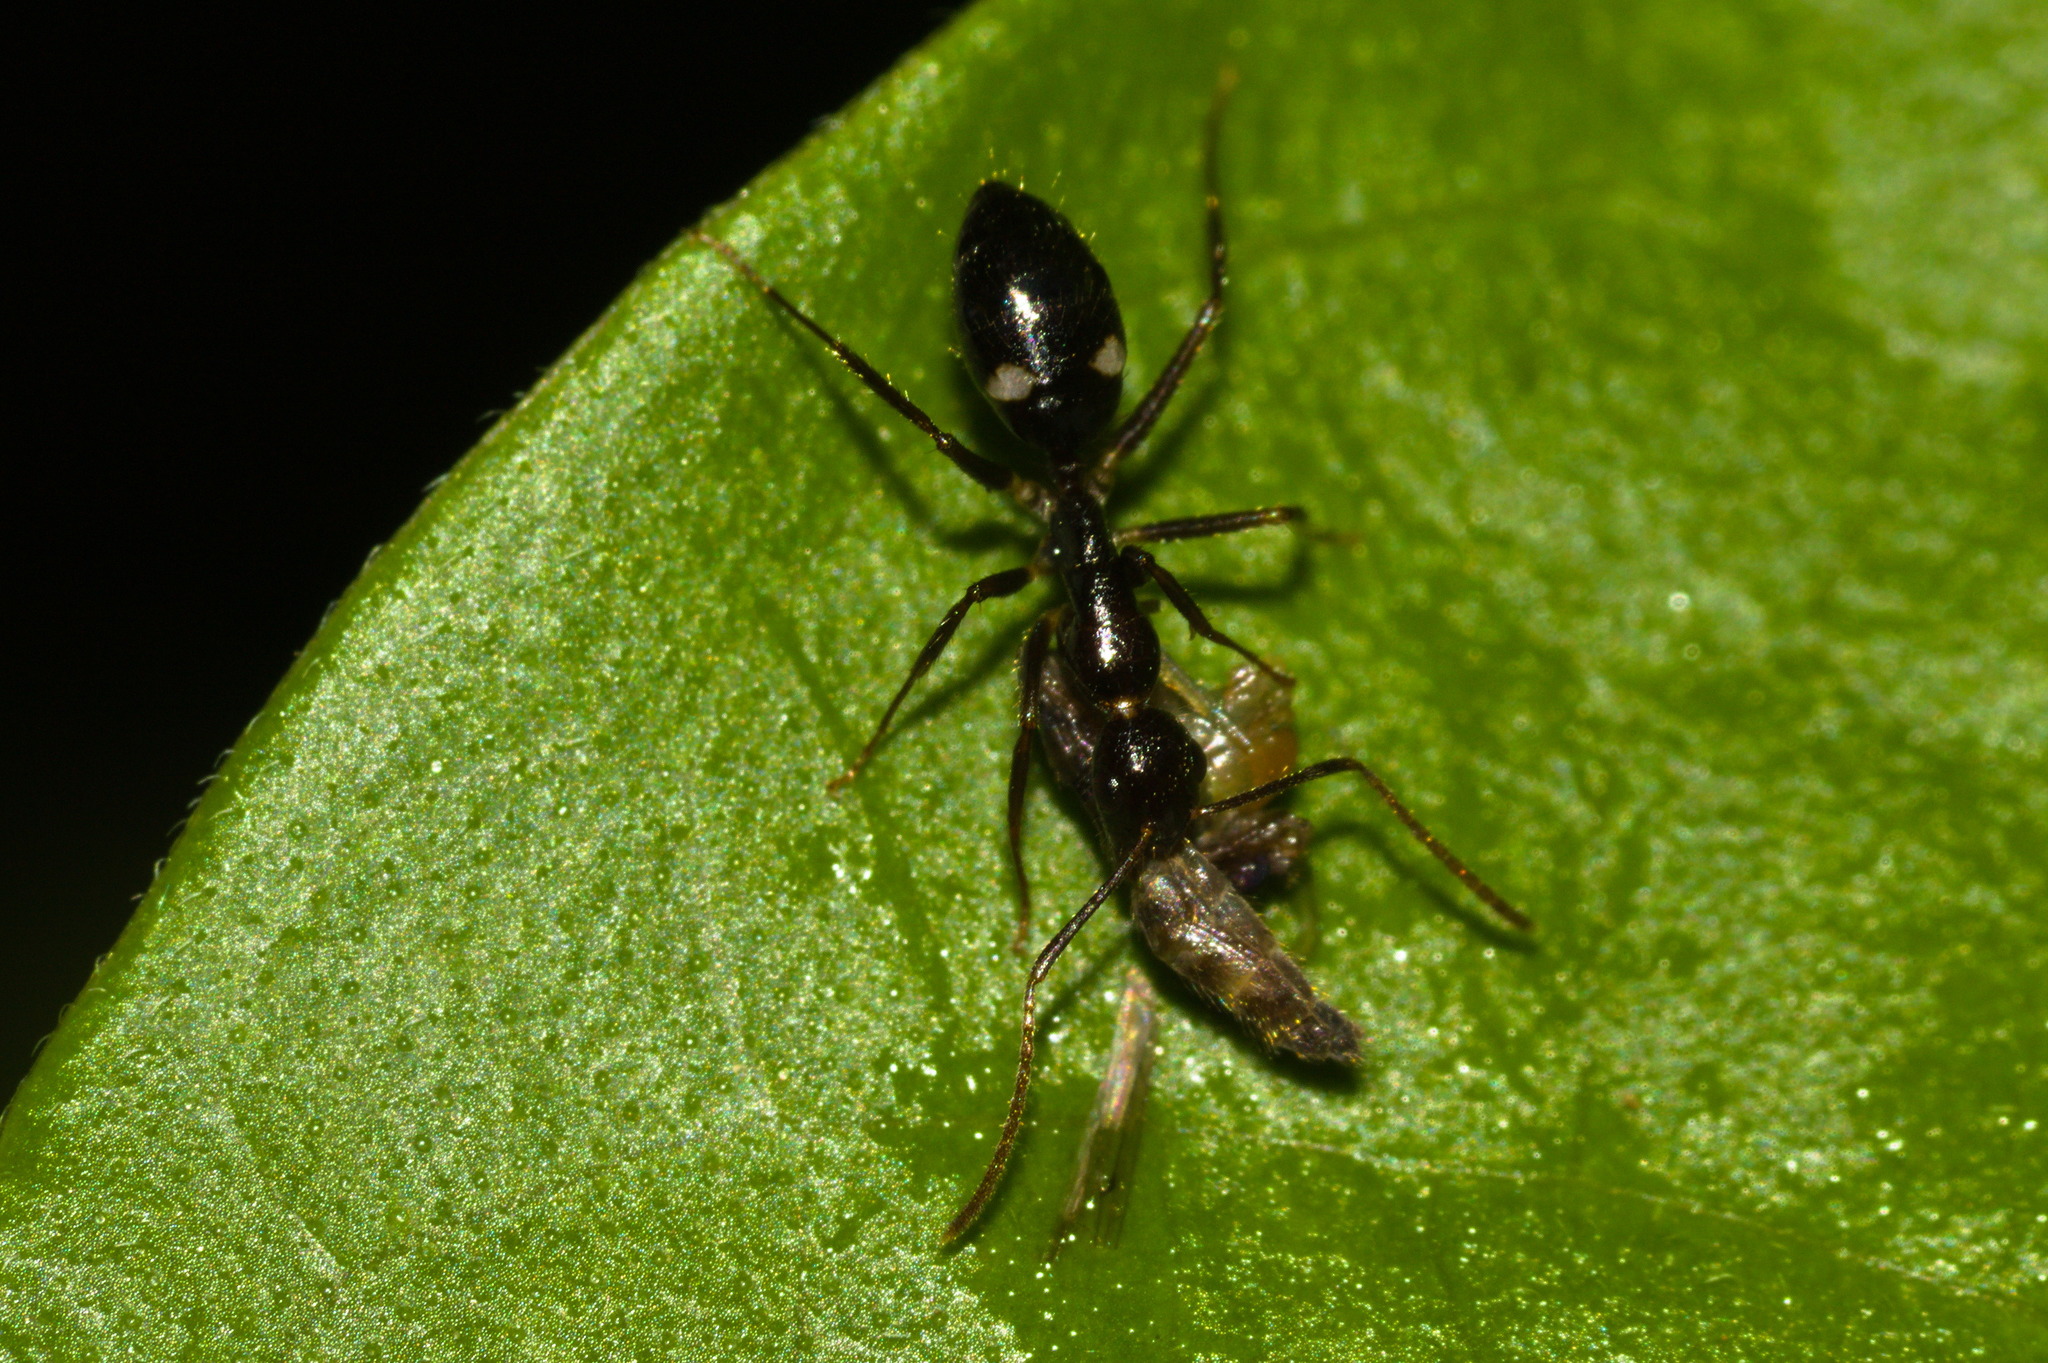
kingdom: Animalia
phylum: Arthropoda
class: Insecta
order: Hymenoptera
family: Formicidae
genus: Camponotus
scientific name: Camponotus sexguttatus
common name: Neotropical carpenter ant
